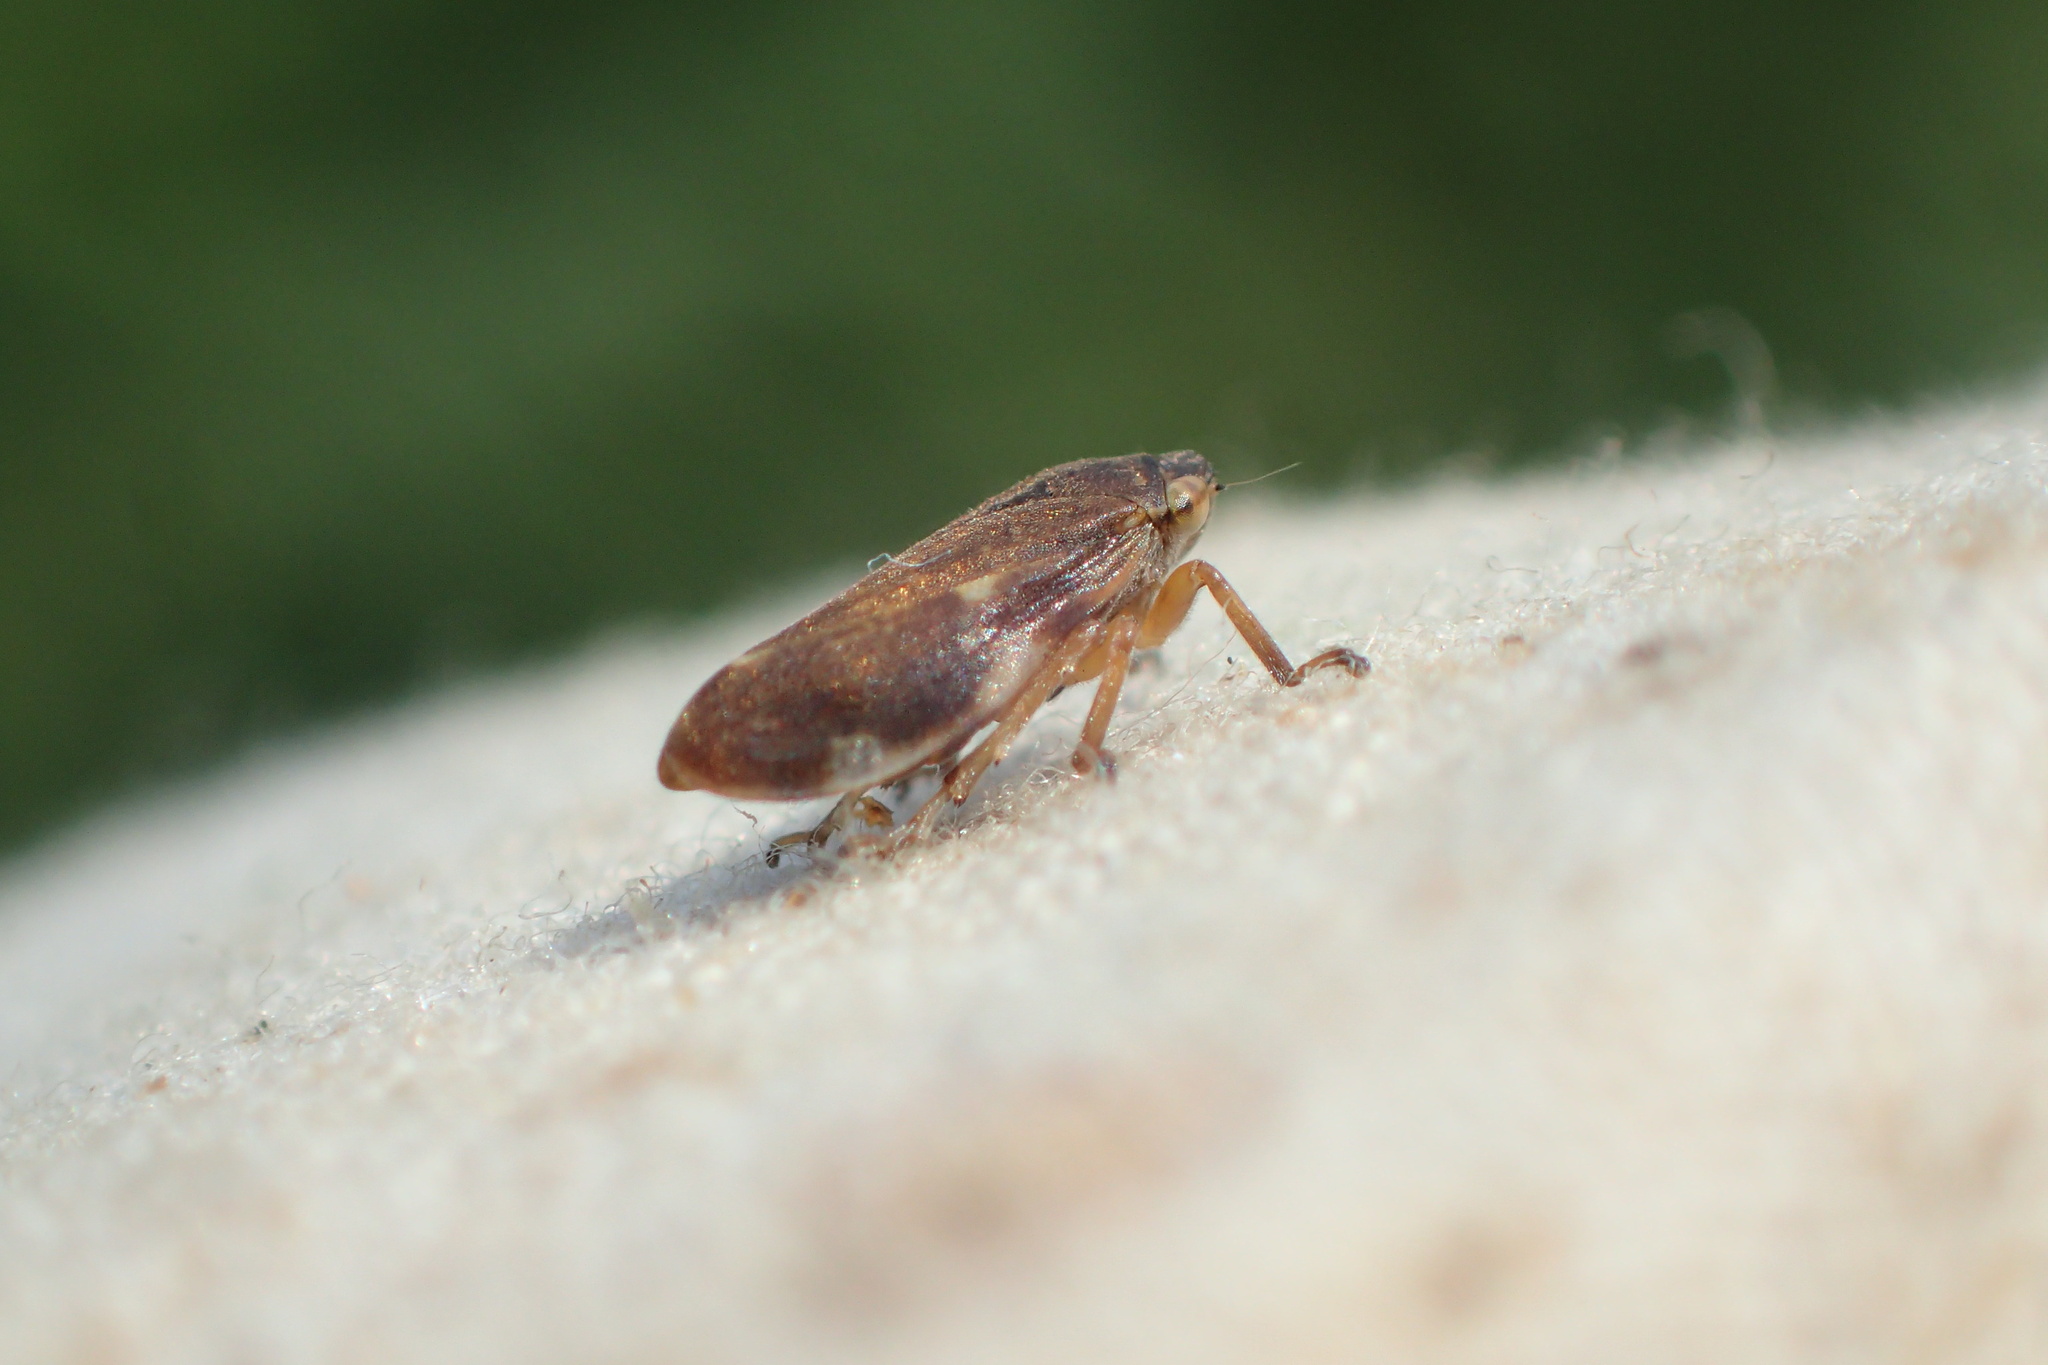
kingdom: Animalia
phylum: Arthropoda
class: Insecta
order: Hemiptera
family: Aphrophoridae
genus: Philaenus
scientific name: Philaenus spumarius
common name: Meadow spittlebug
